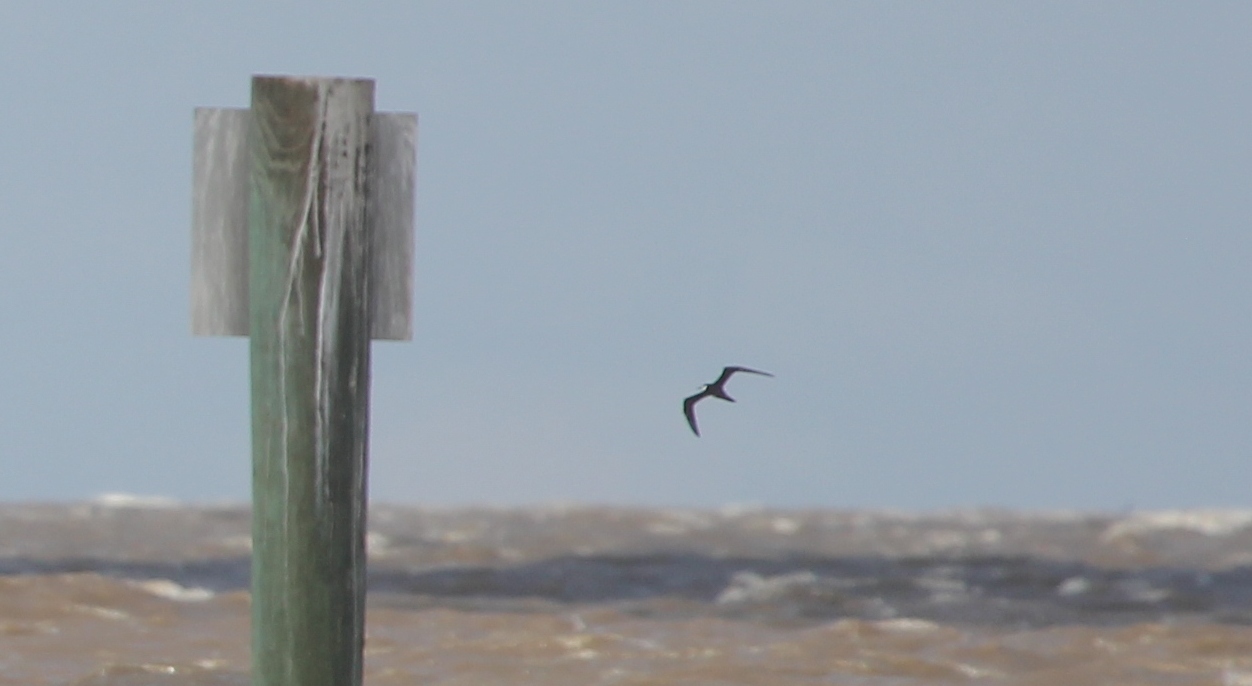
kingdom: Animalia
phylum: Chordata
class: Aves
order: Charadriiformes
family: Laridae
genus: Onychoprion
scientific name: Onychoprion fuscatus
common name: Sooty tern
